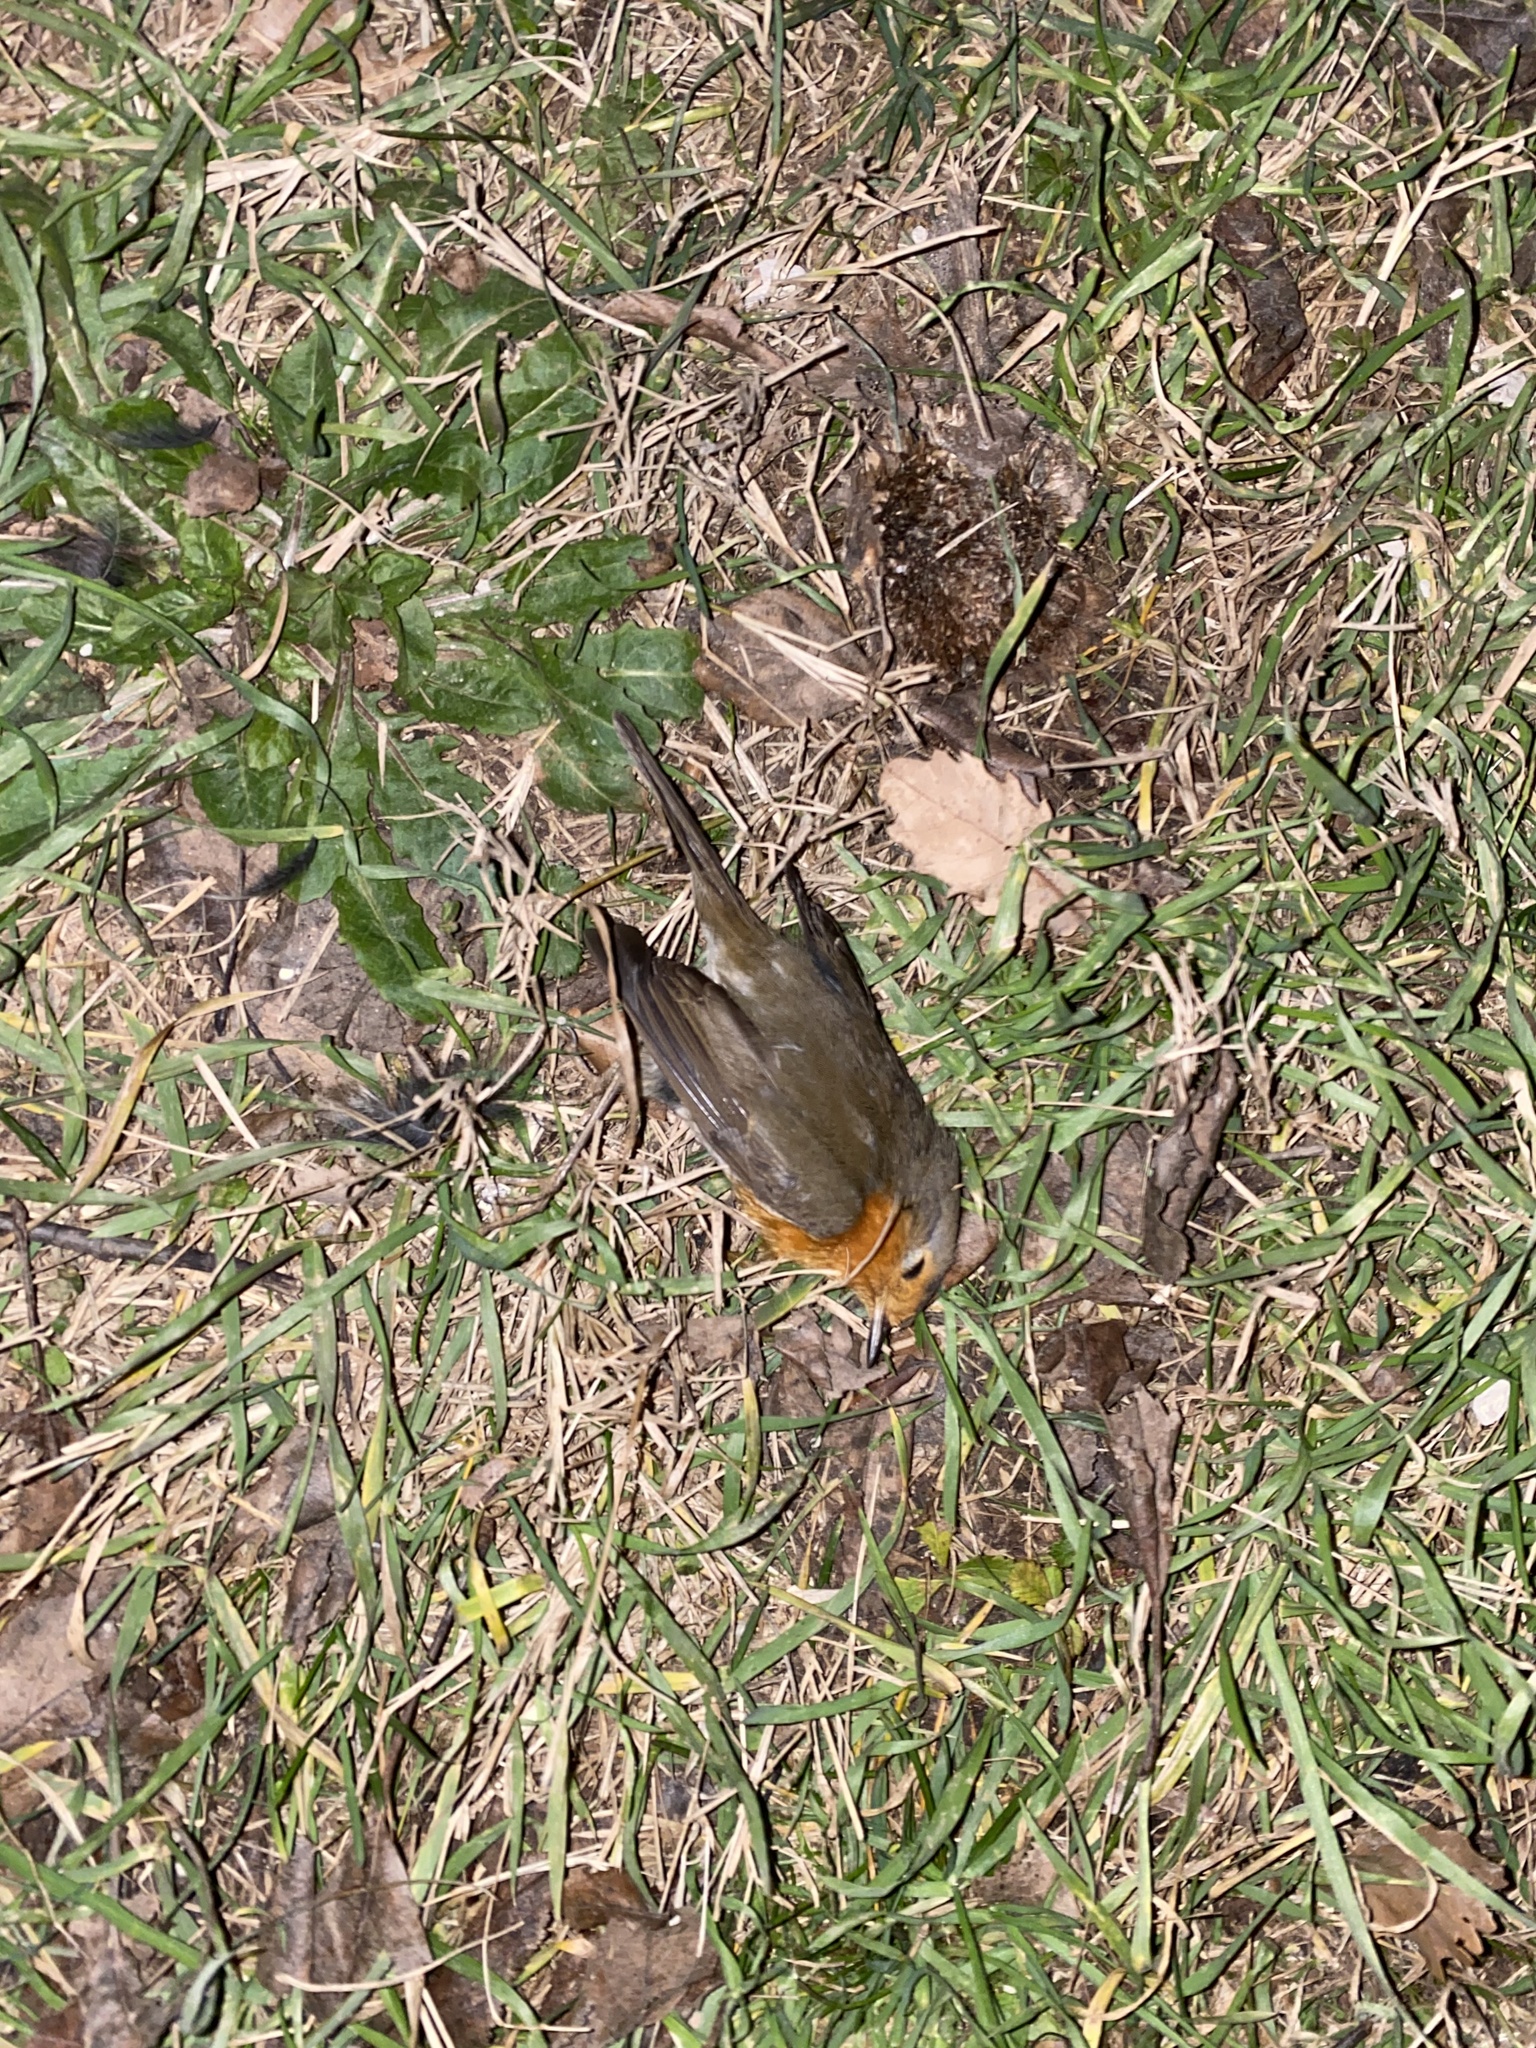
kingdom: Animalia
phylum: Chordata
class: Aves
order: Passeriformes
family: Muscicapidae
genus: Erithacus
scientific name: Erithacus rubecula
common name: European robin
